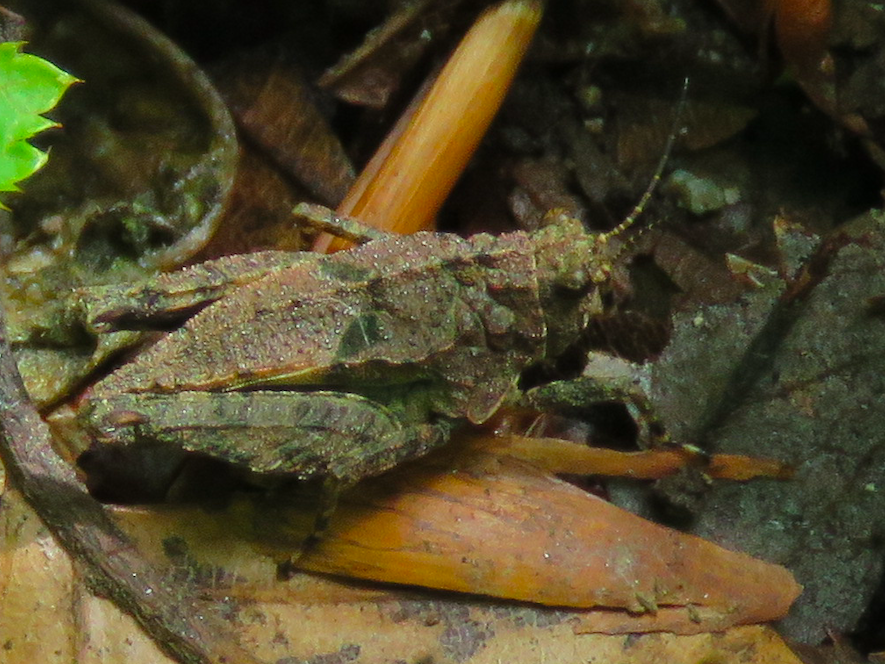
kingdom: Animalia
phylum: Arthropoda
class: Insecta
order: Orthoptera
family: Tetrigidae
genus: Tetrix
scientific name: Tetrix transsylvanica
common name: Transsylvanian wingless groundhopper
